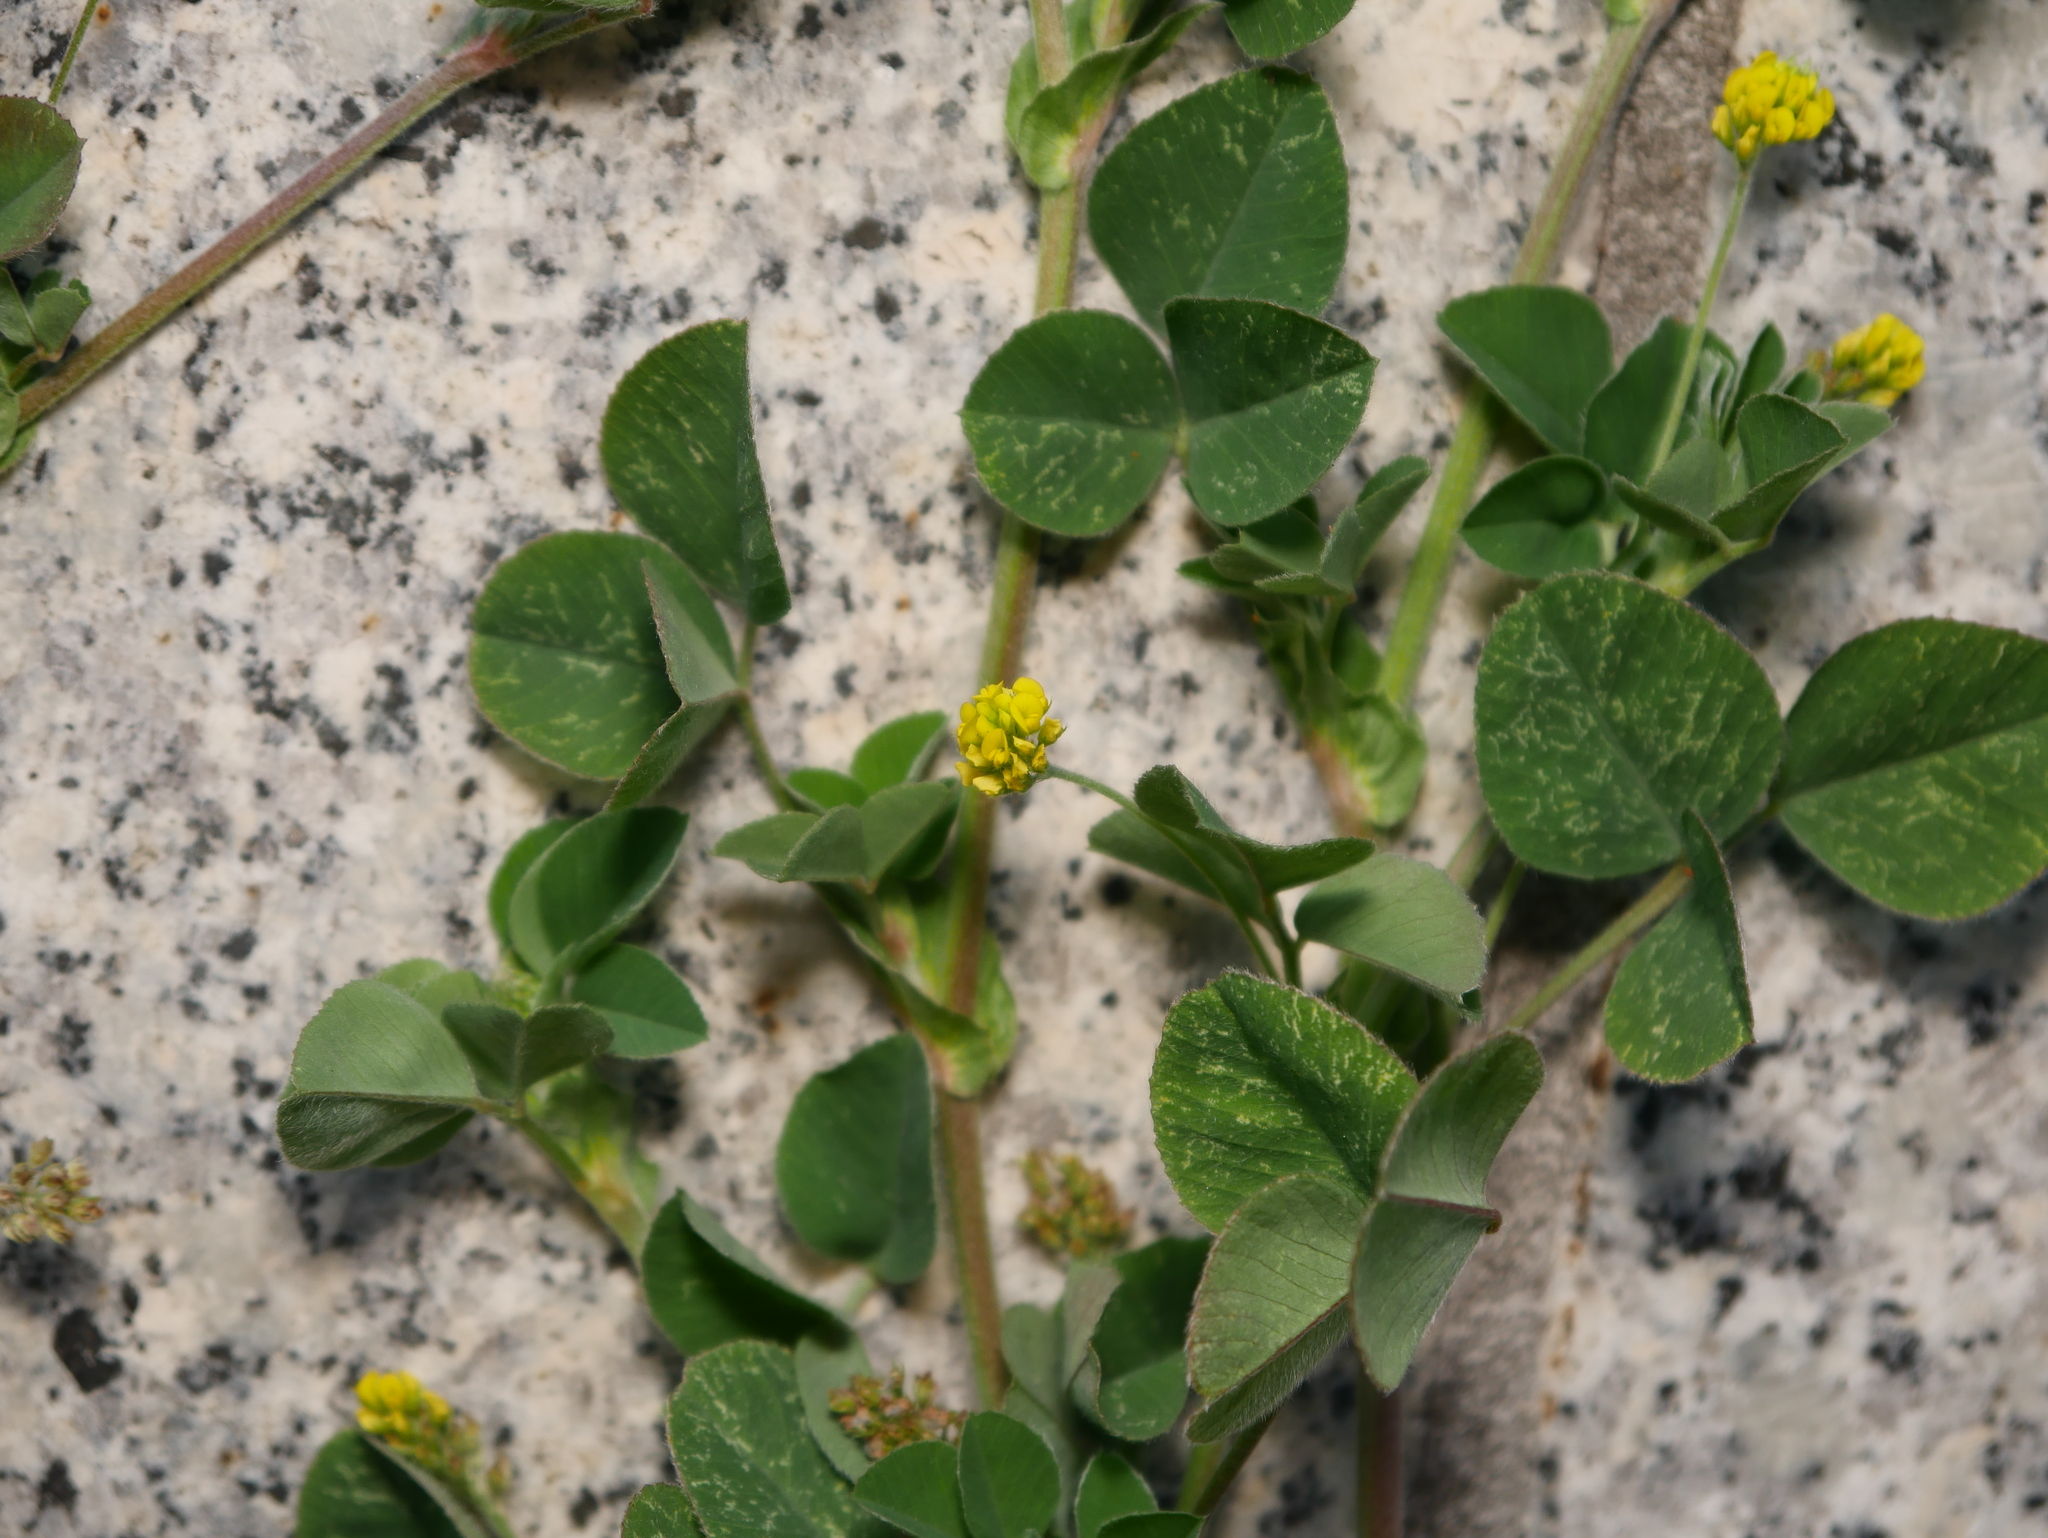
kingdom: Plantae
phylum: Tracheophyta
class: Magnoliopsida
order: Fabales
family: Fabaceae
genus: Medicago
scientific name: Medicago lupulina
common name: Black medick
